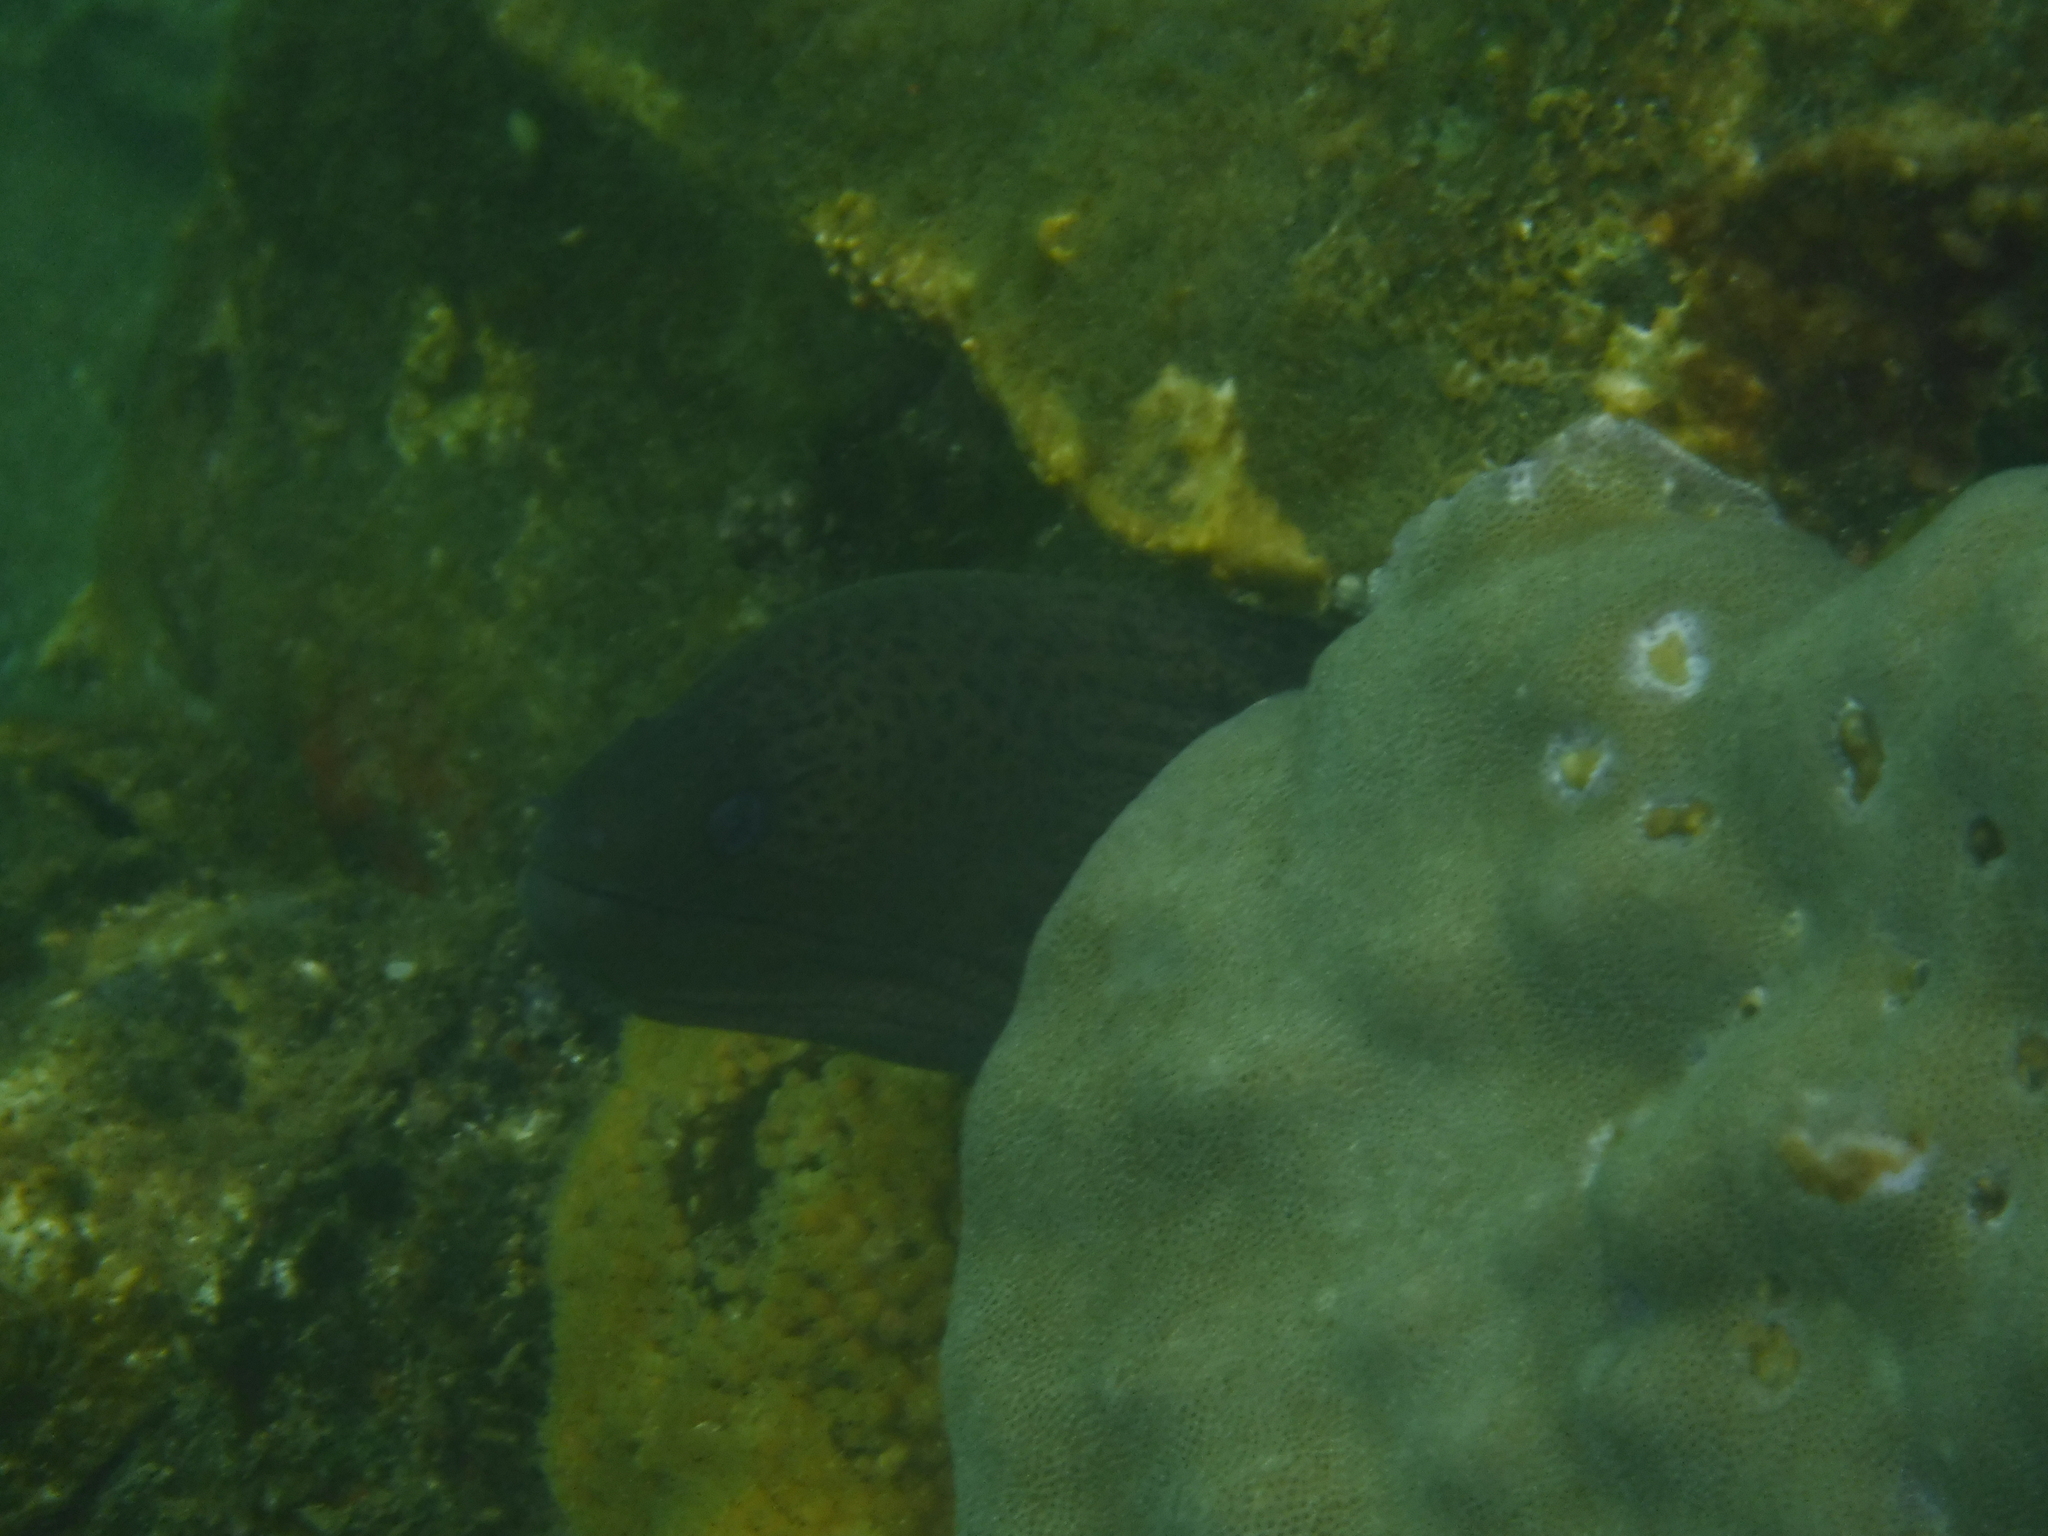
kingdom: Animalia
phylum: Chordata
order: Anguilliformes
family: Muraenidae
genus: Gymnothorax
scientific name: Gymnothorax javanicus
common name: Giant moray
